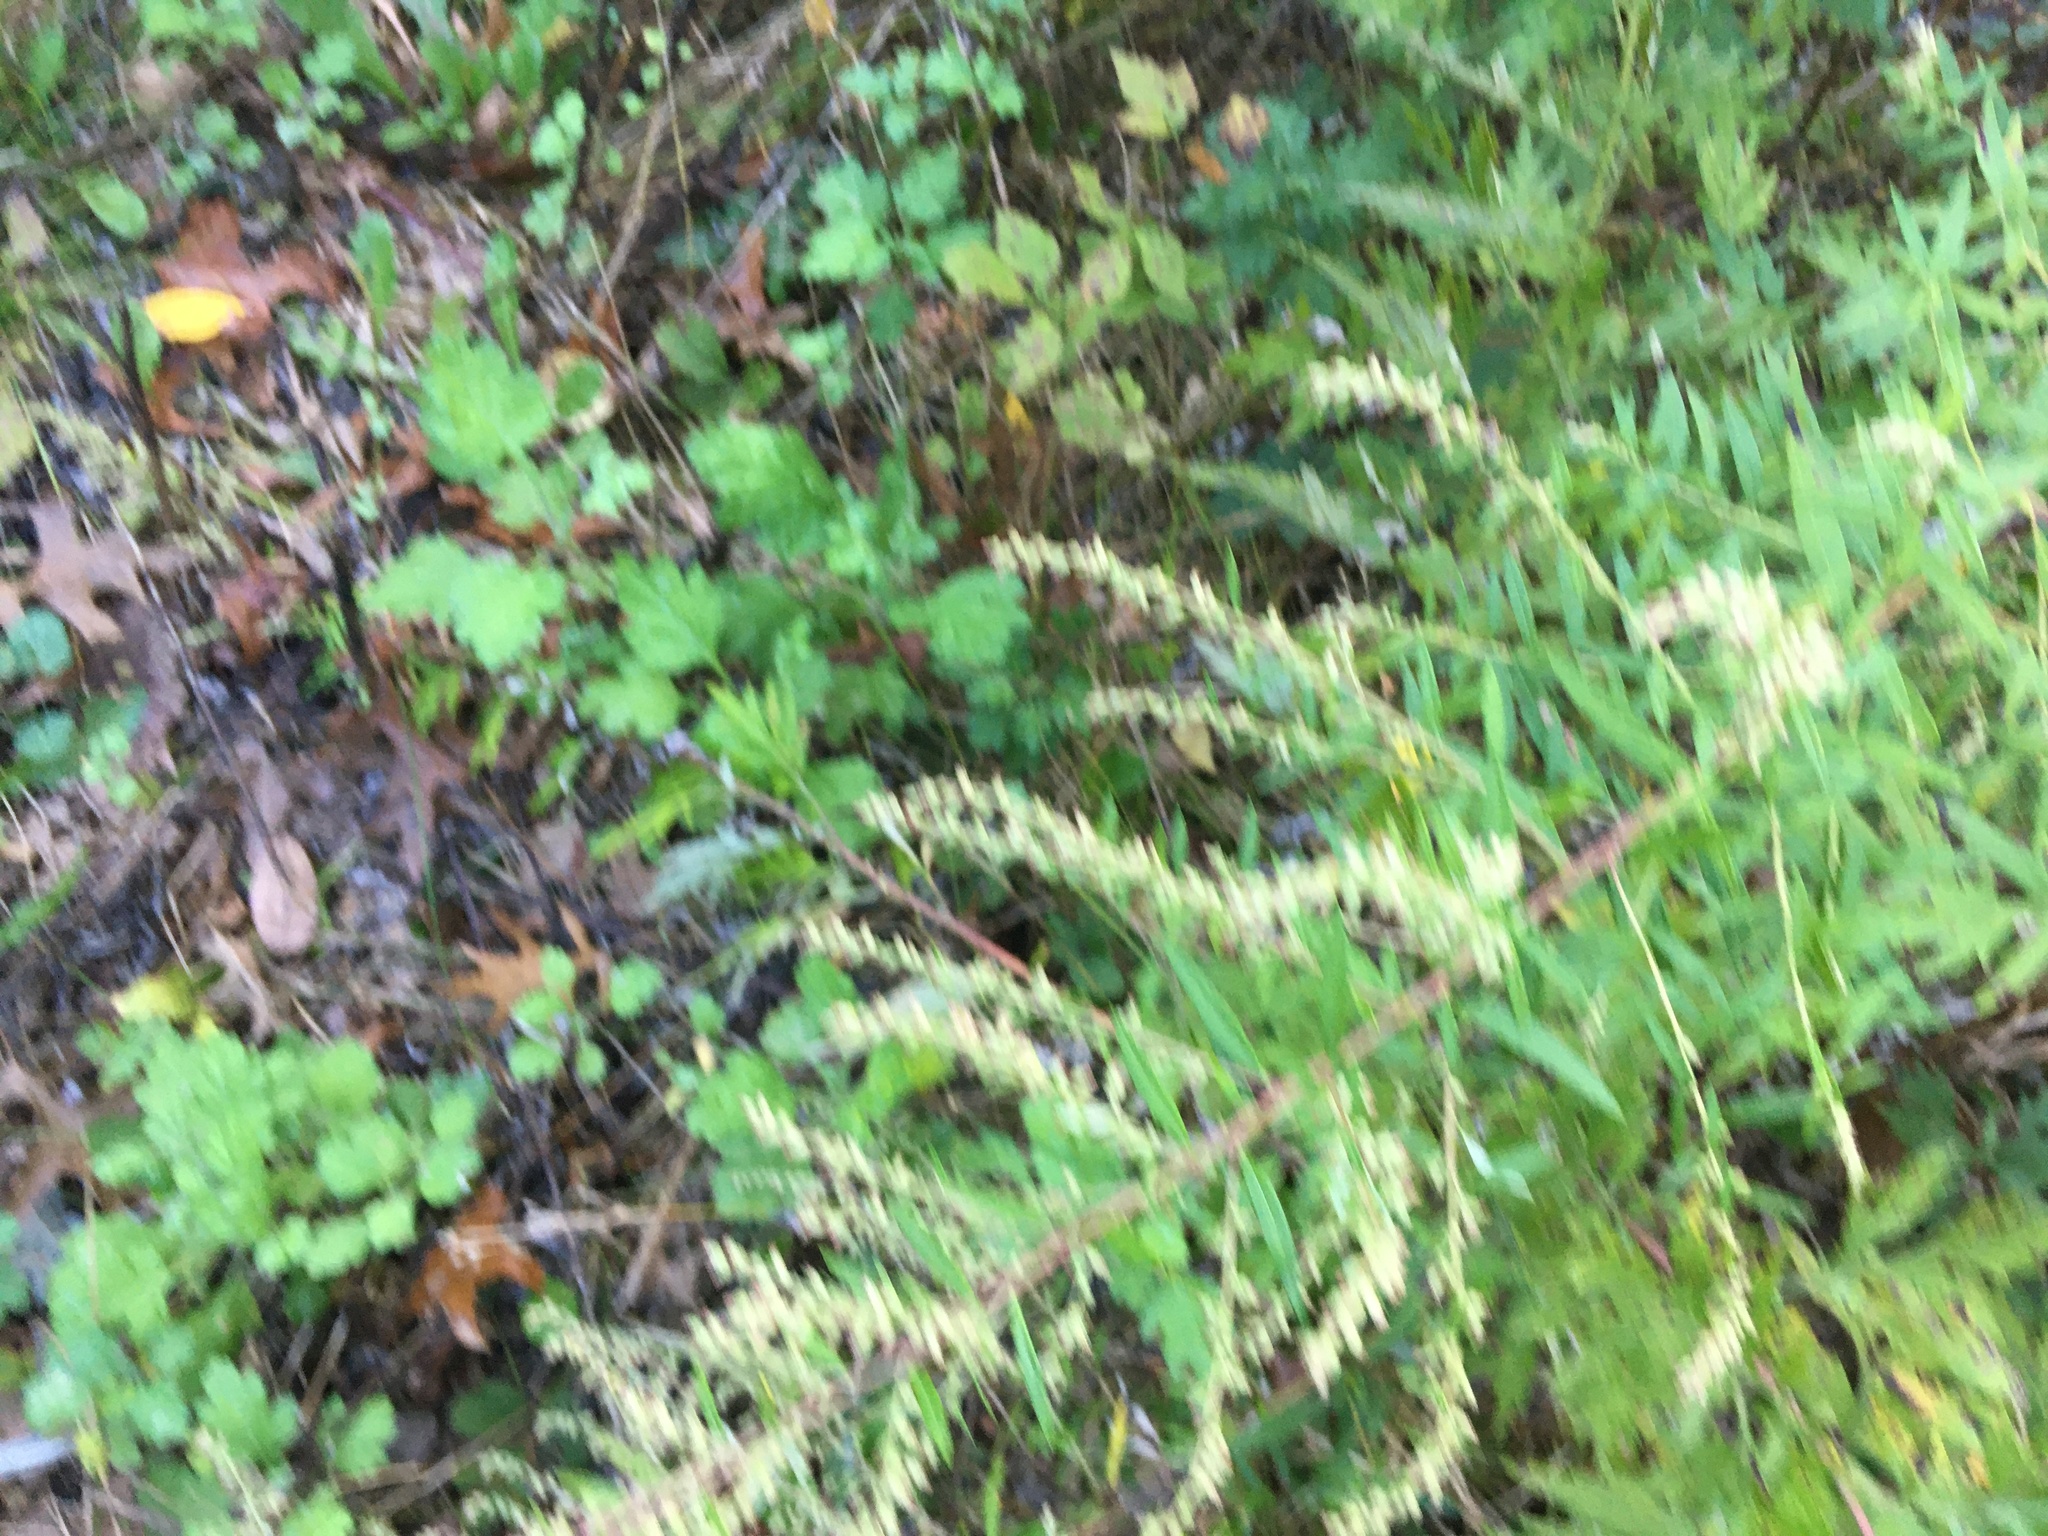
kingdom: Plantae
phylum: Tracheophyta
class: Magnoliopsida
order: Asterales
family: Asteraceae
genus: Artemisia
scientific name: Artemisia vulgaris
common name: Mugwort
